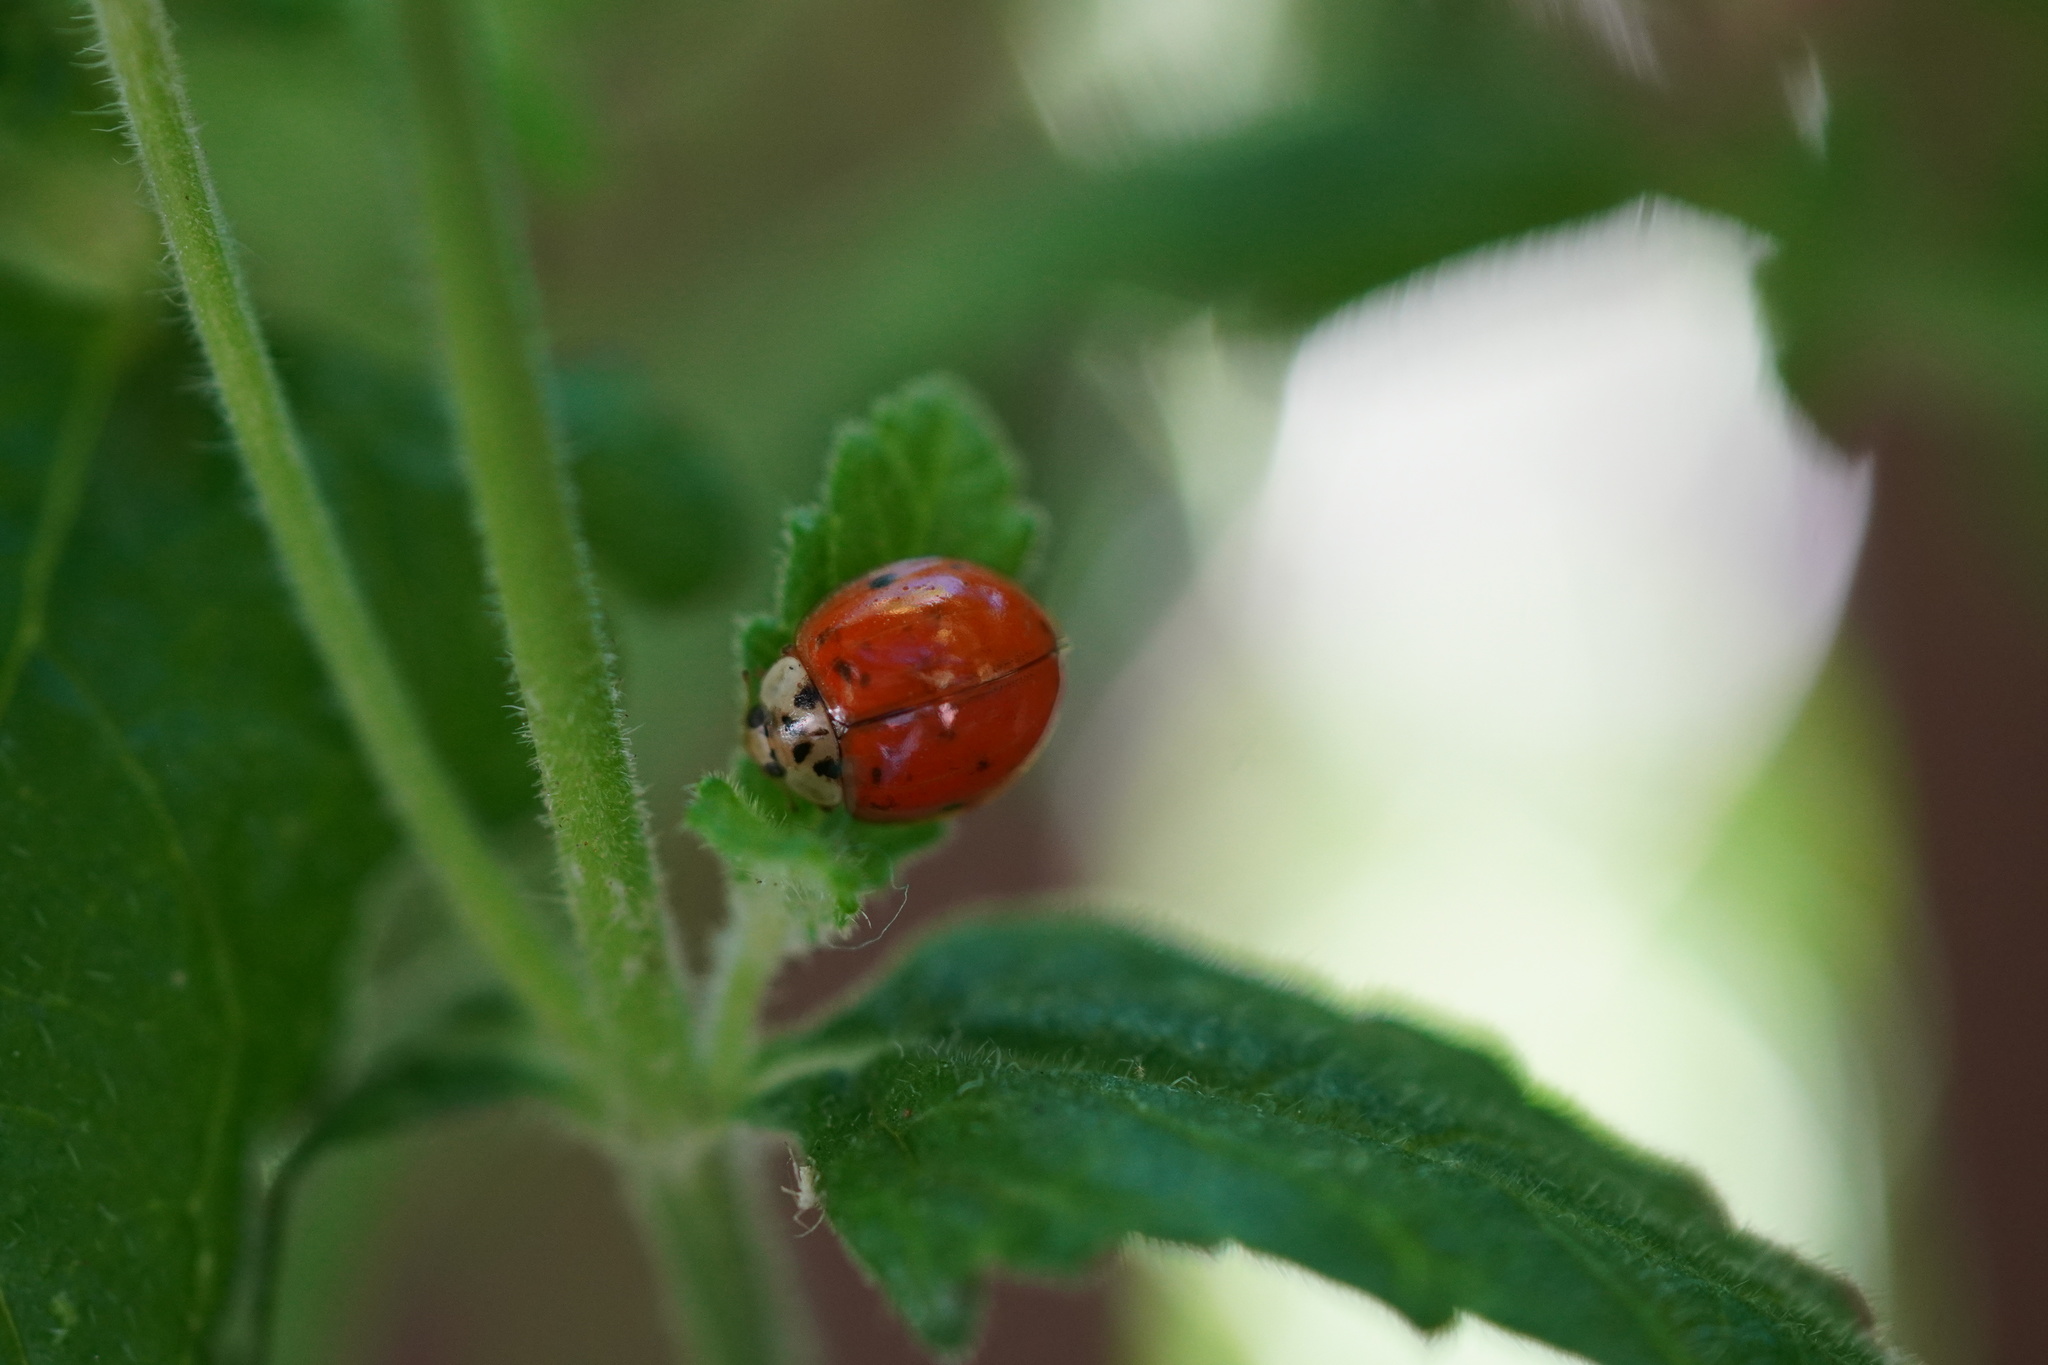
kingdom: Animalia
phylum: Arthropoda
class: Insecta
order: Coleoptera
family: Coccinellidae
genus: Harmonia
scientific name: Harmonia axyridis
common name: Harlequin ladybird
